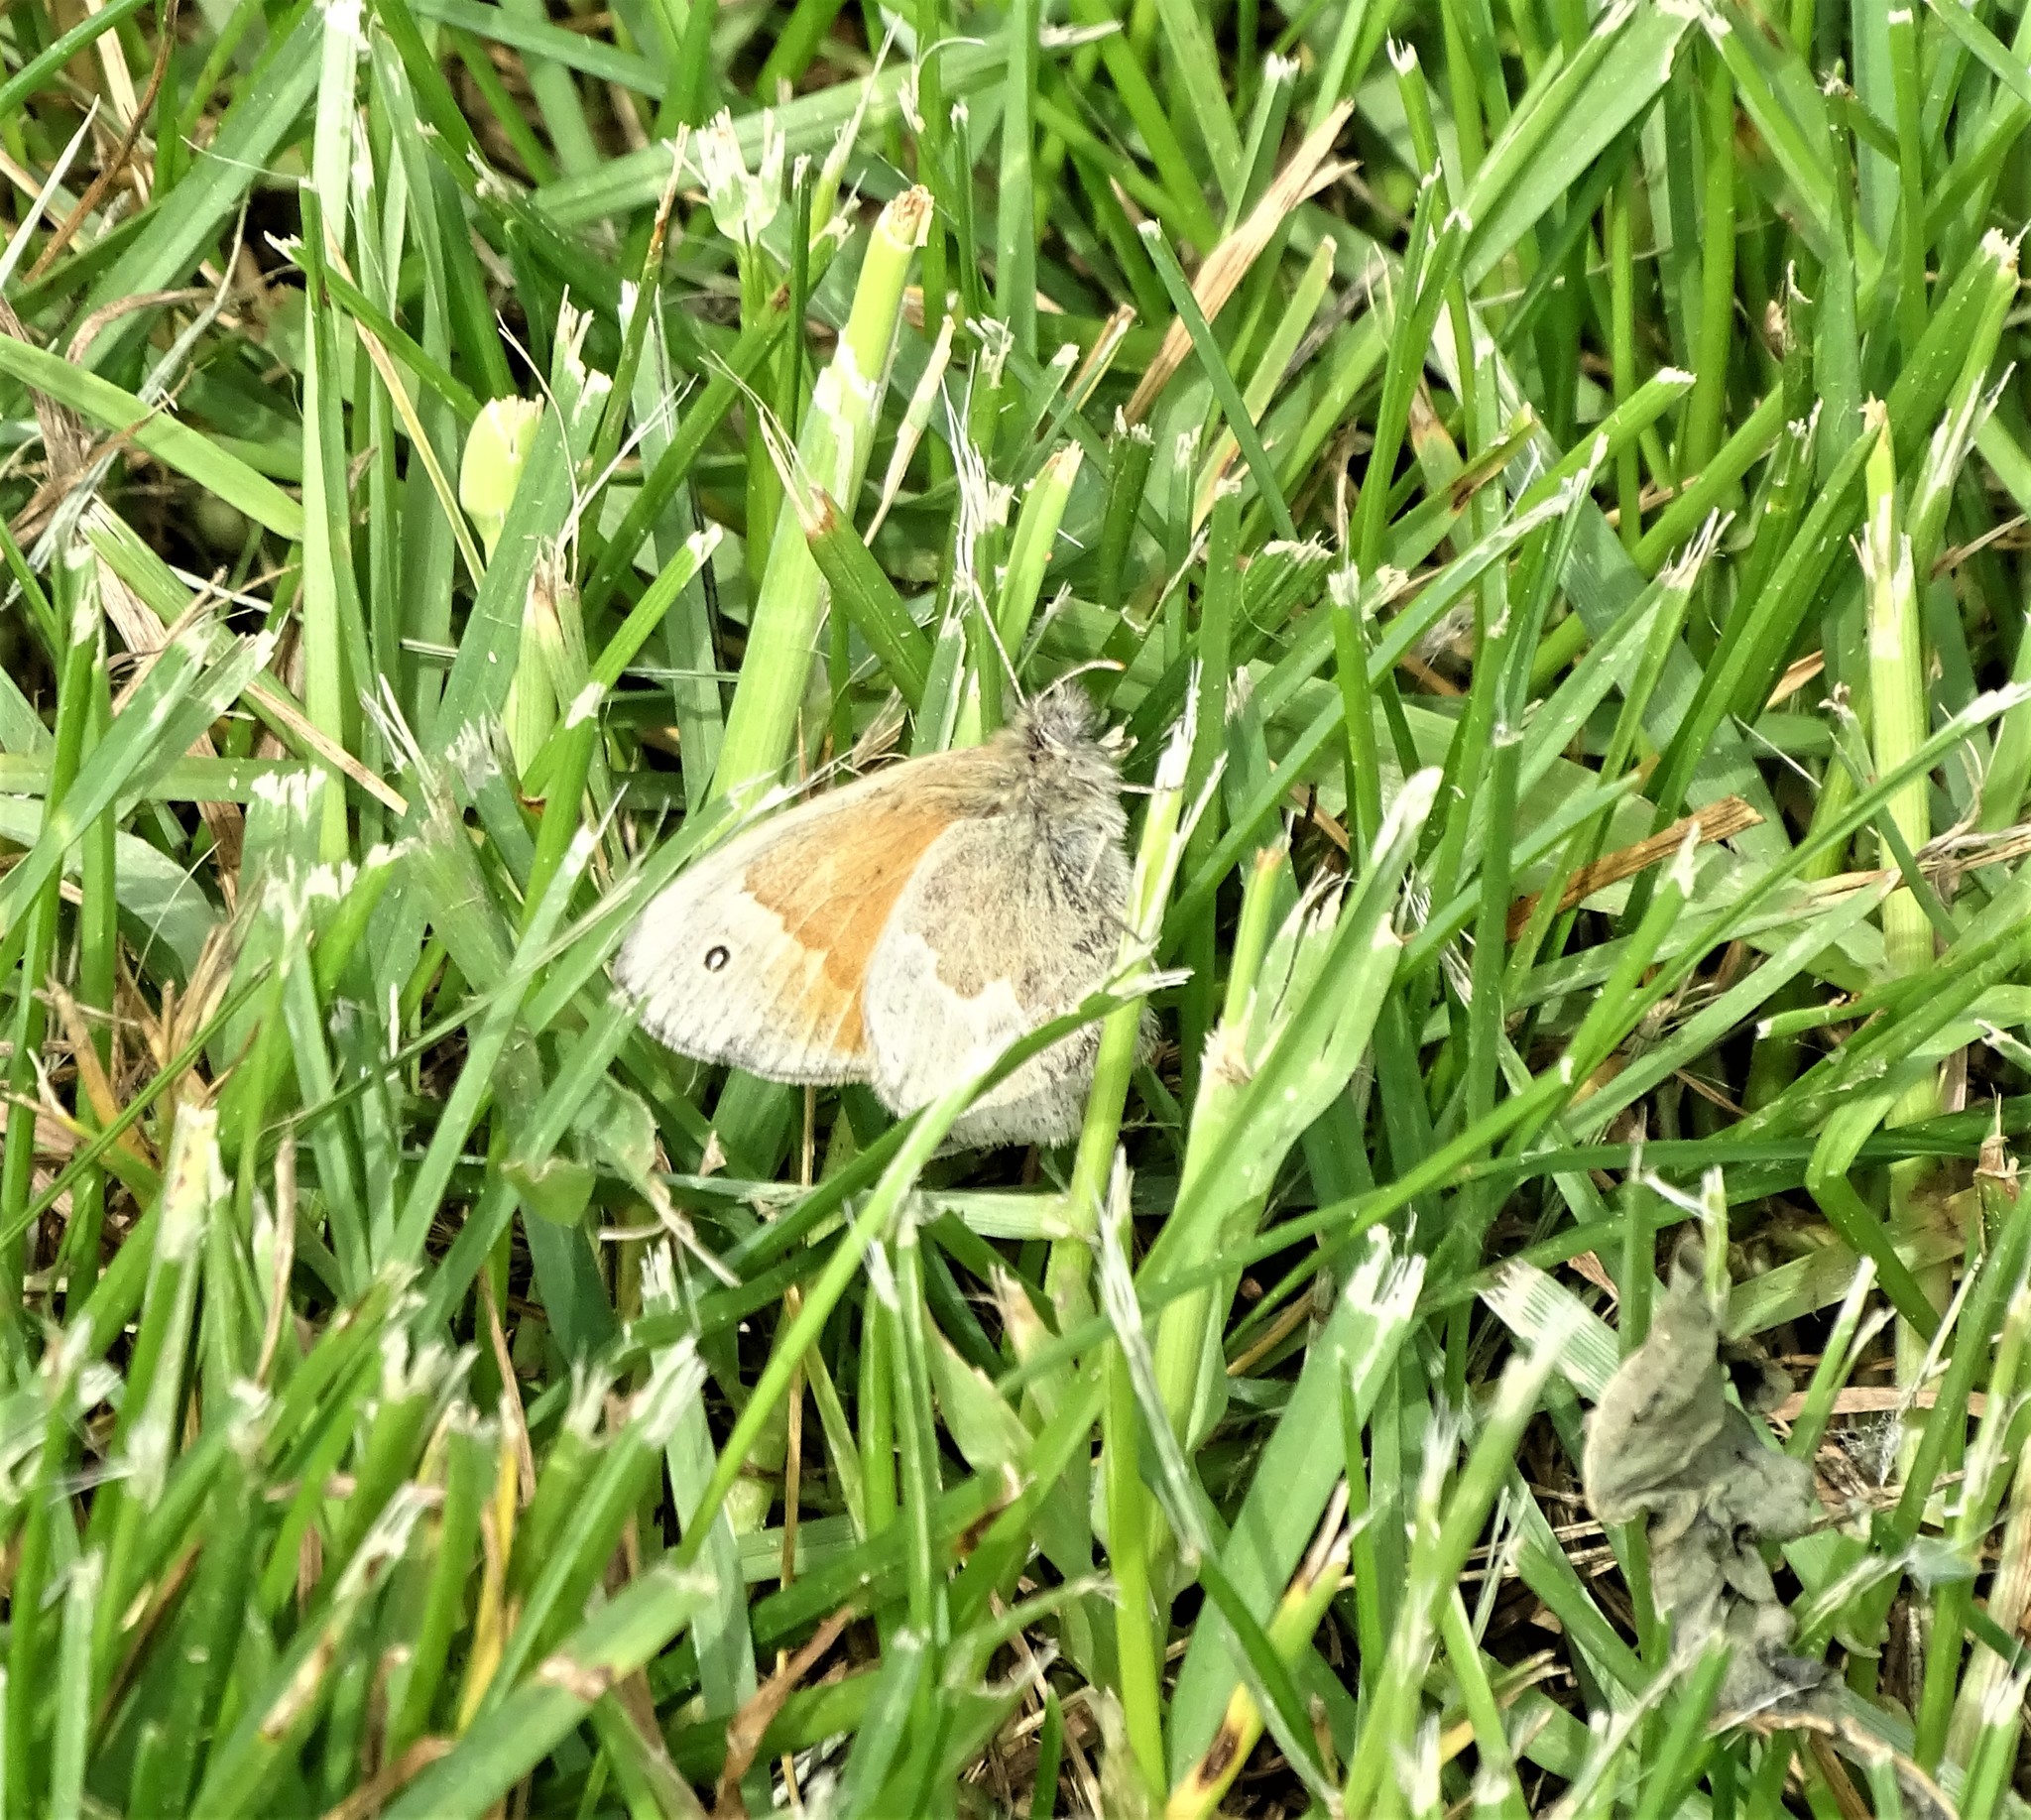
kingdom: Animalia
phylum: Arthropoda
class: Insecta
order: Lepidoptera
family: Nymphalidae
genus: Coenonympha
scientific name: Coenonympha california
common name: Common ringlet
